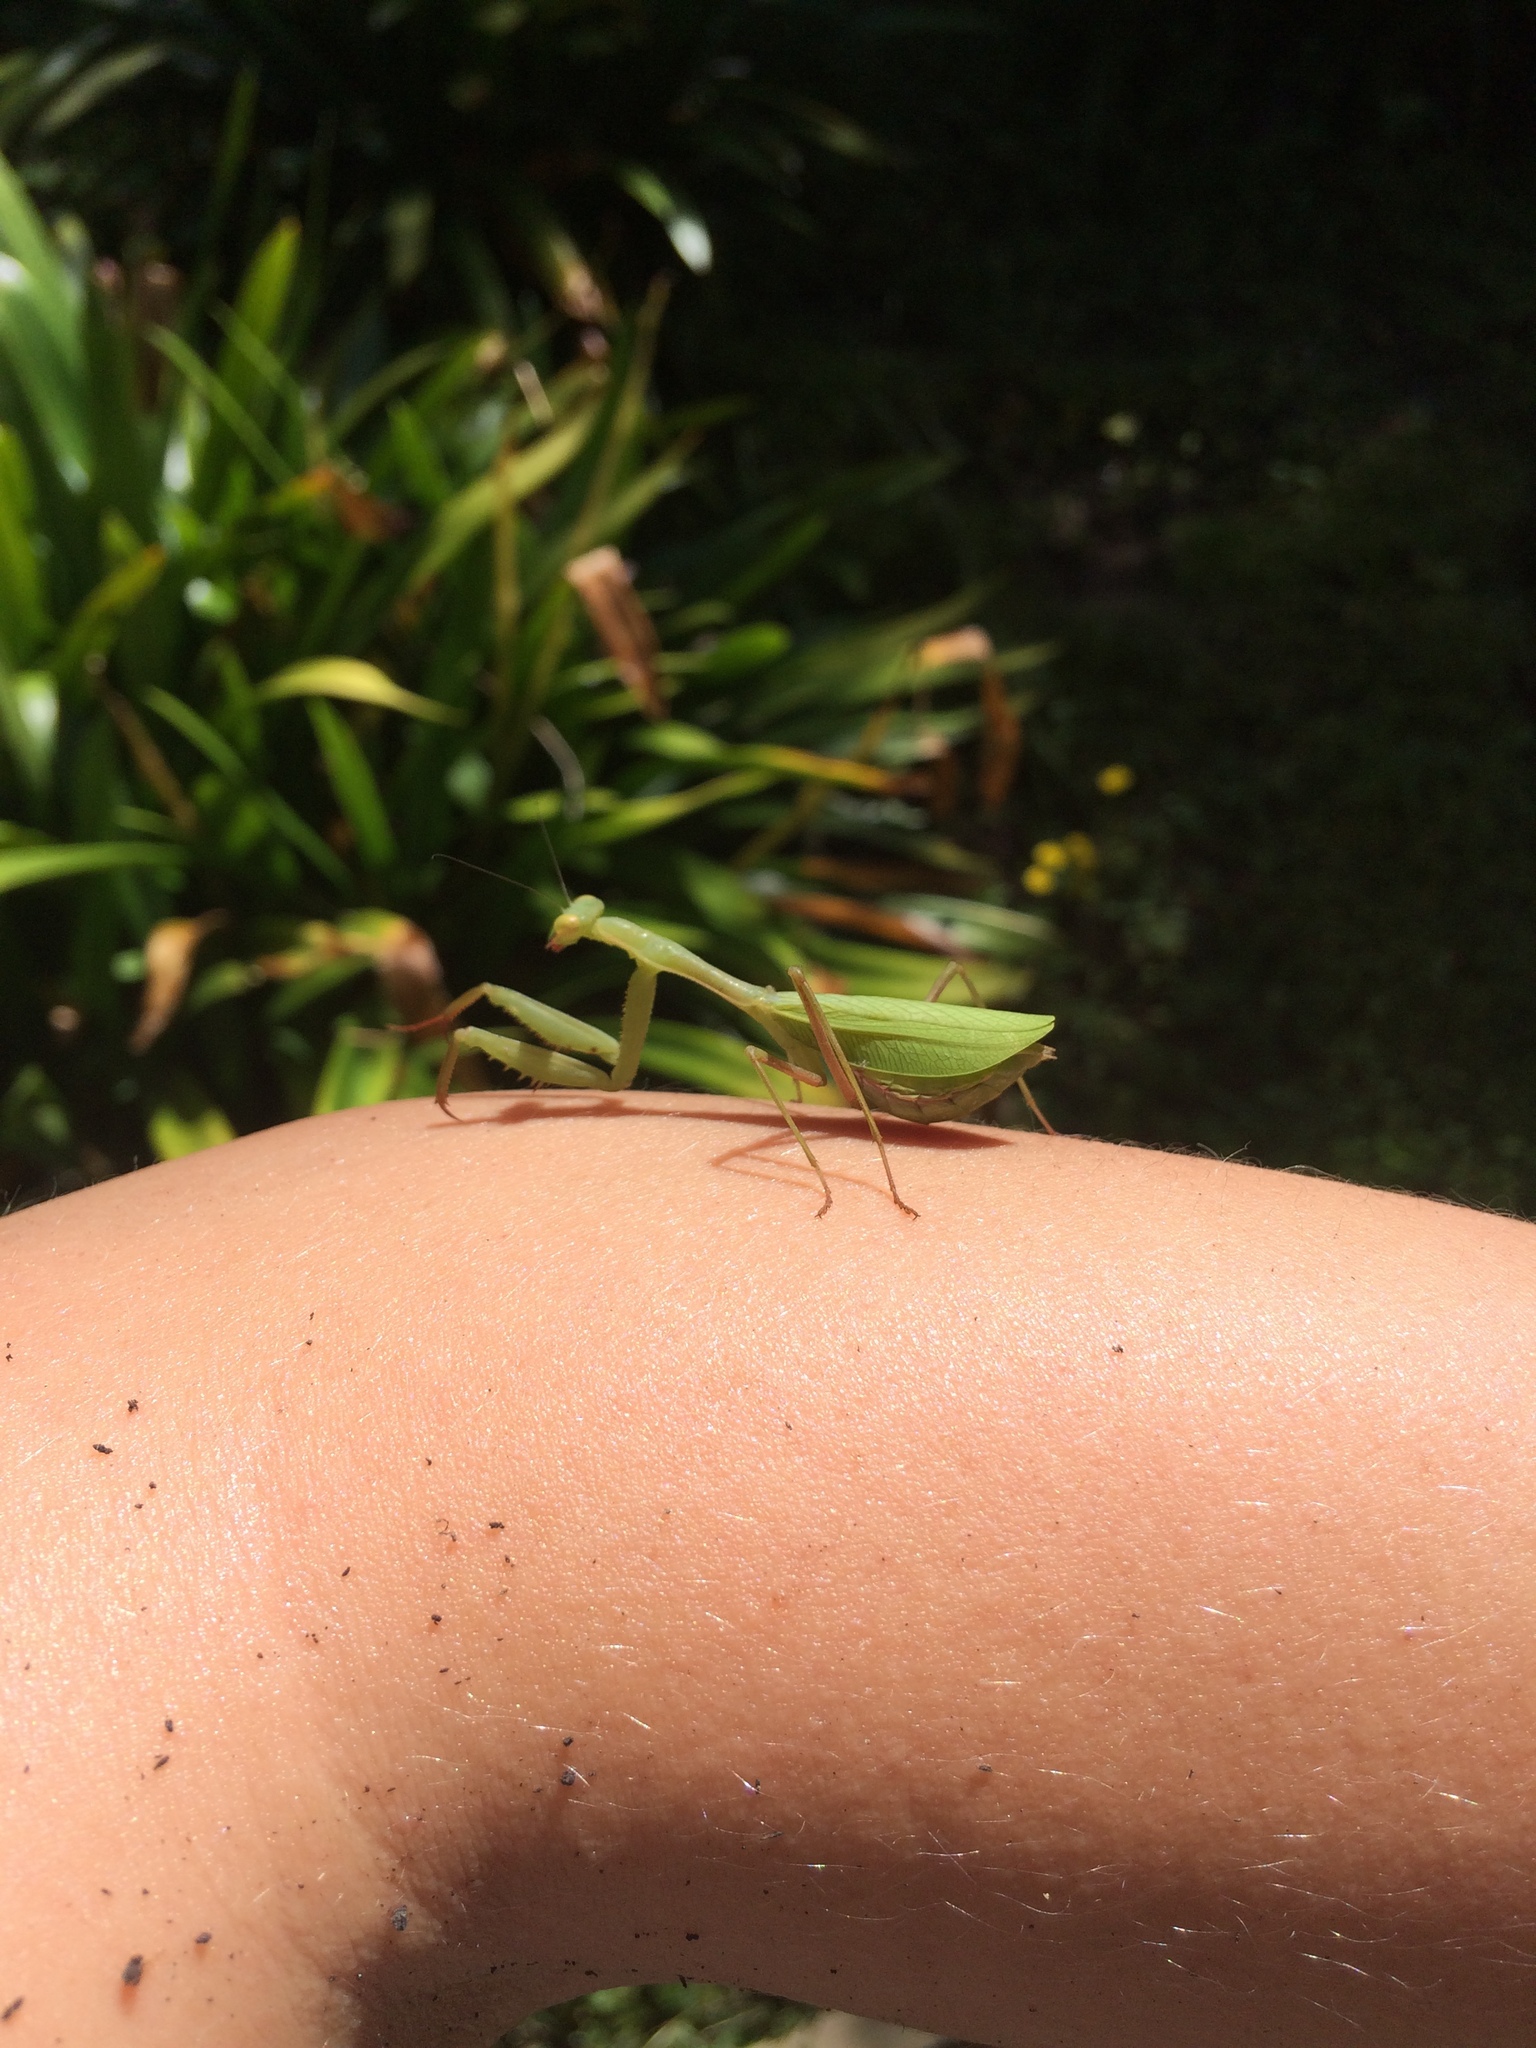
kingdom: Animalia
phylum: Arthropoda
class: Insecta
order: Mantodea
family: Miomantidae
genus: Miomantis
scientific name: Miomantis caffra
